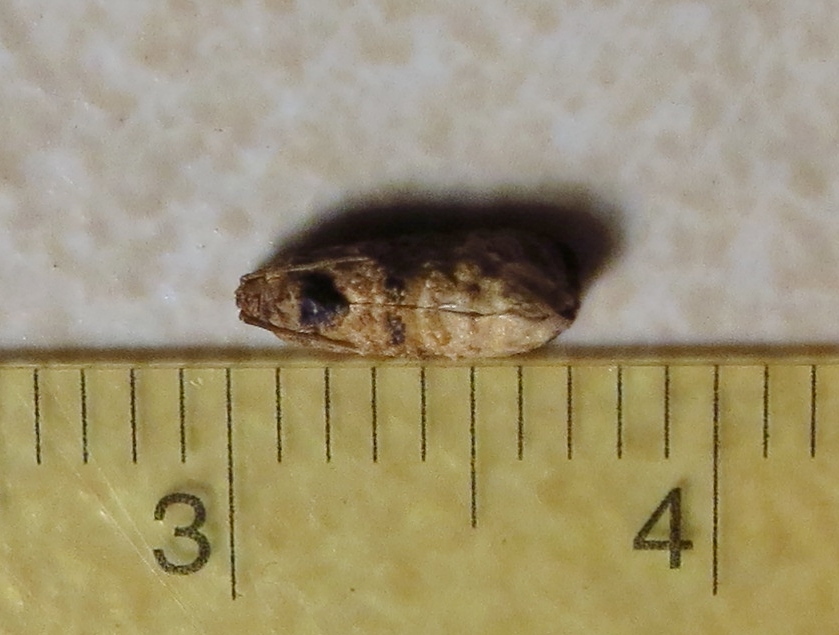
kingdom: Animalia
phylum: Arthropoda
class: Insecta
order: Lepidoptera
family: Tortricidae
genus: Ecdytolopha
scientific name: Ecdytolopha mana
